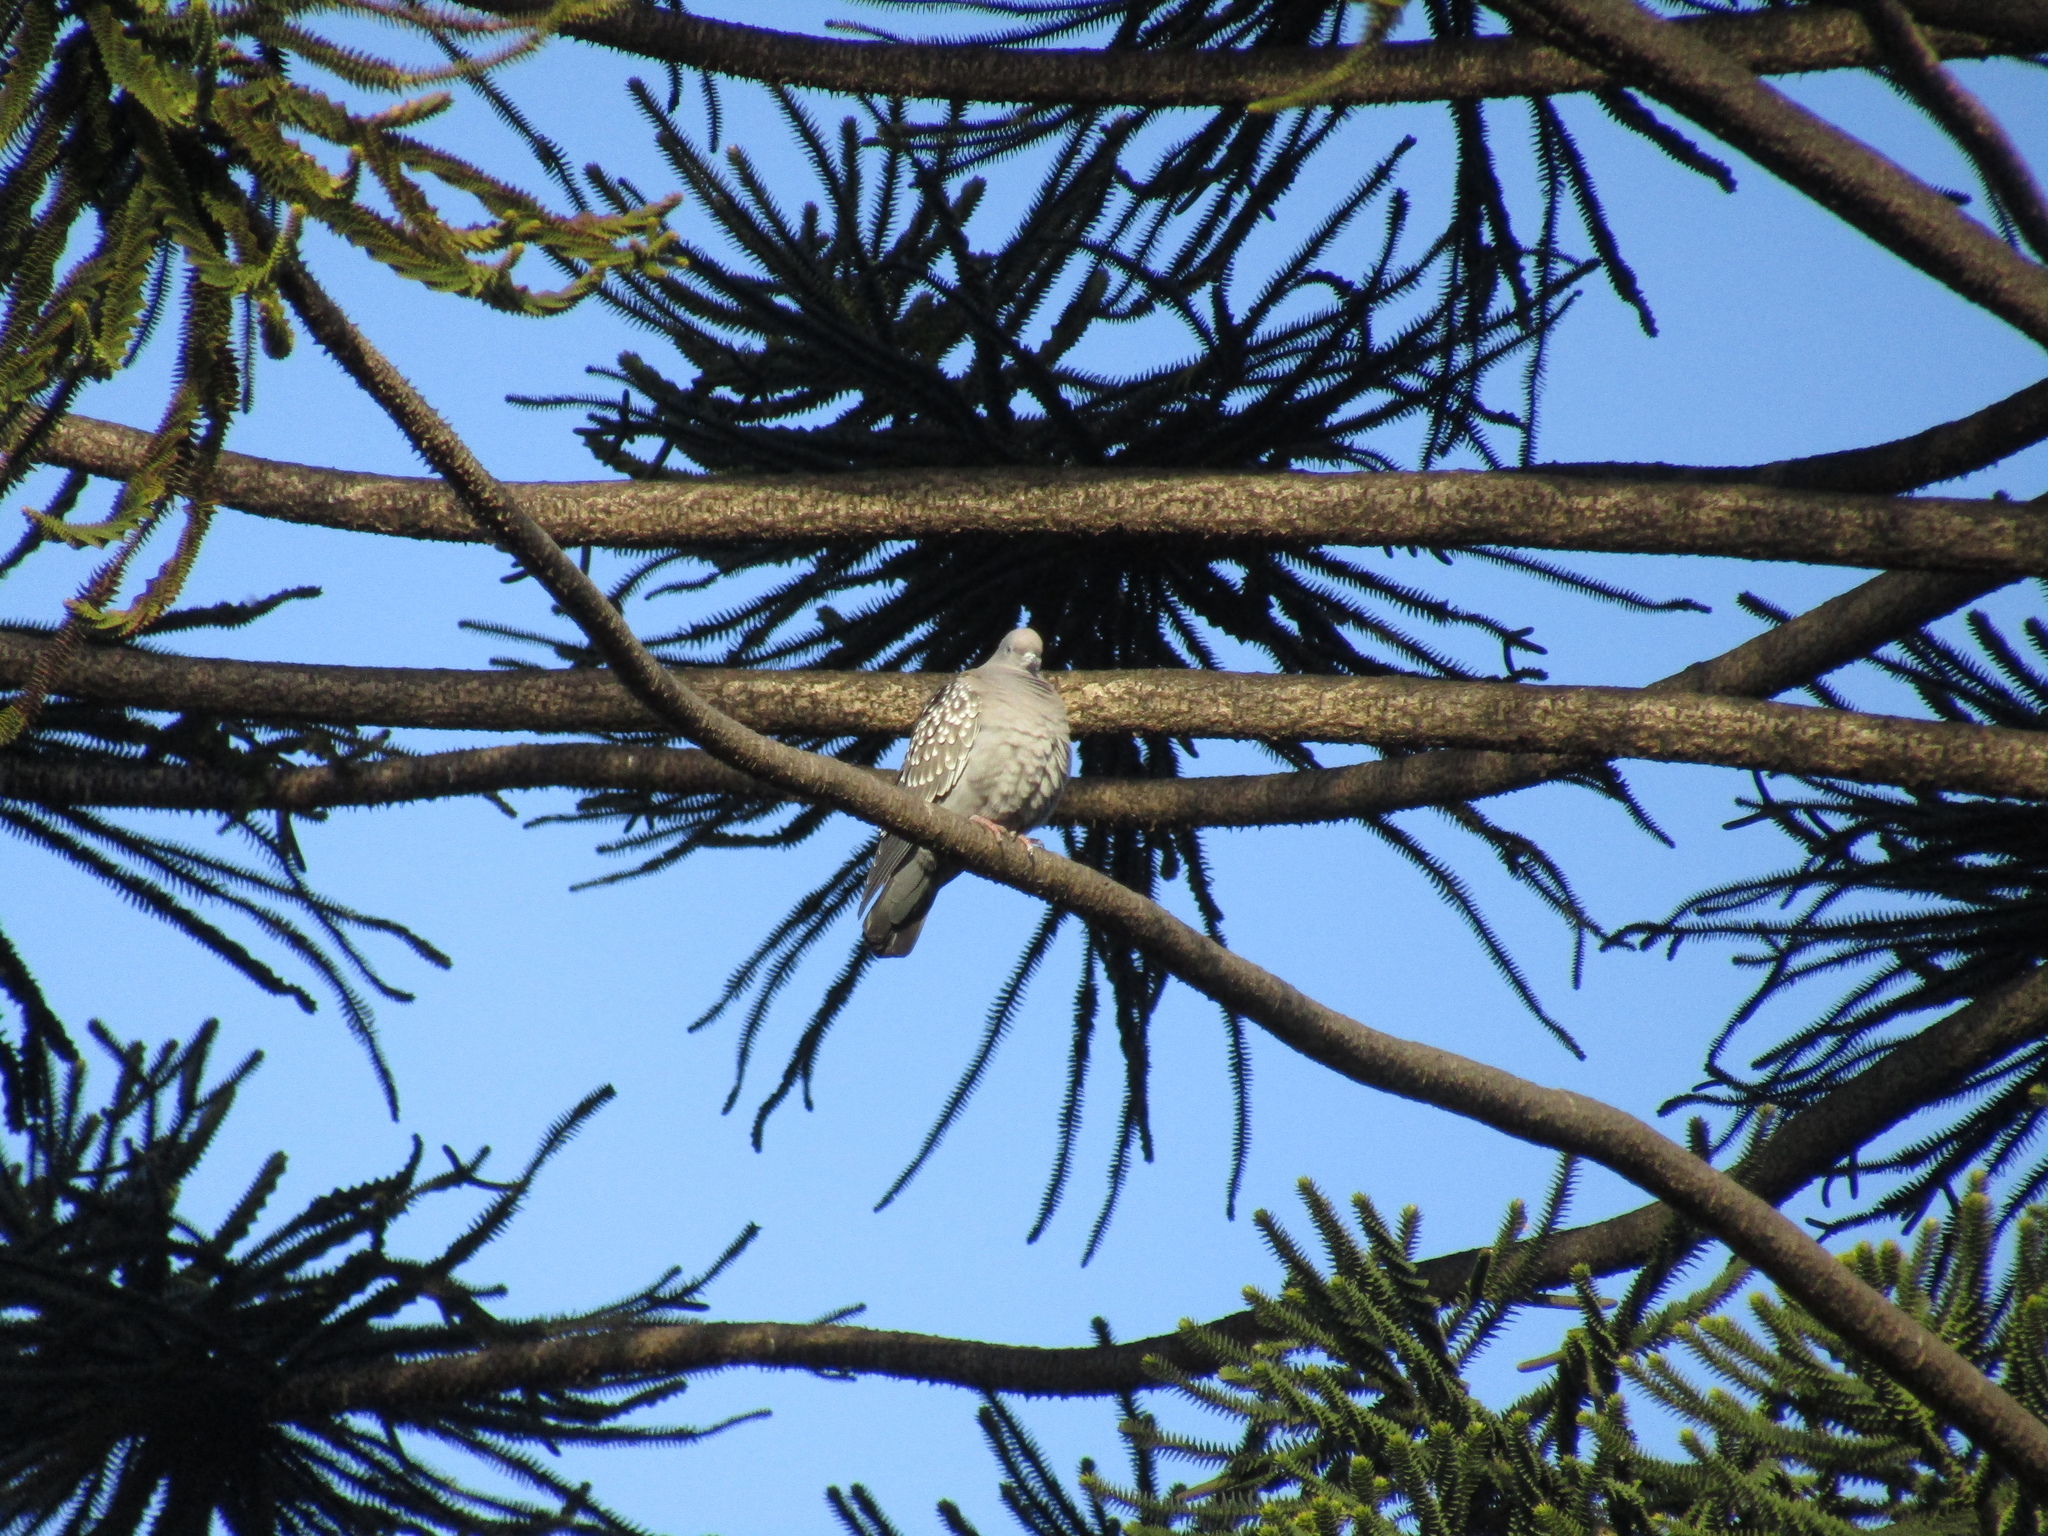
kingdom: Animalia
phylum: Chordata
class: Aves
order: Columbiformes
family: Columbidae
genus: Patagioenas
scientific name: Patagioenas maculosa
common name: Spot-winged pigeon
